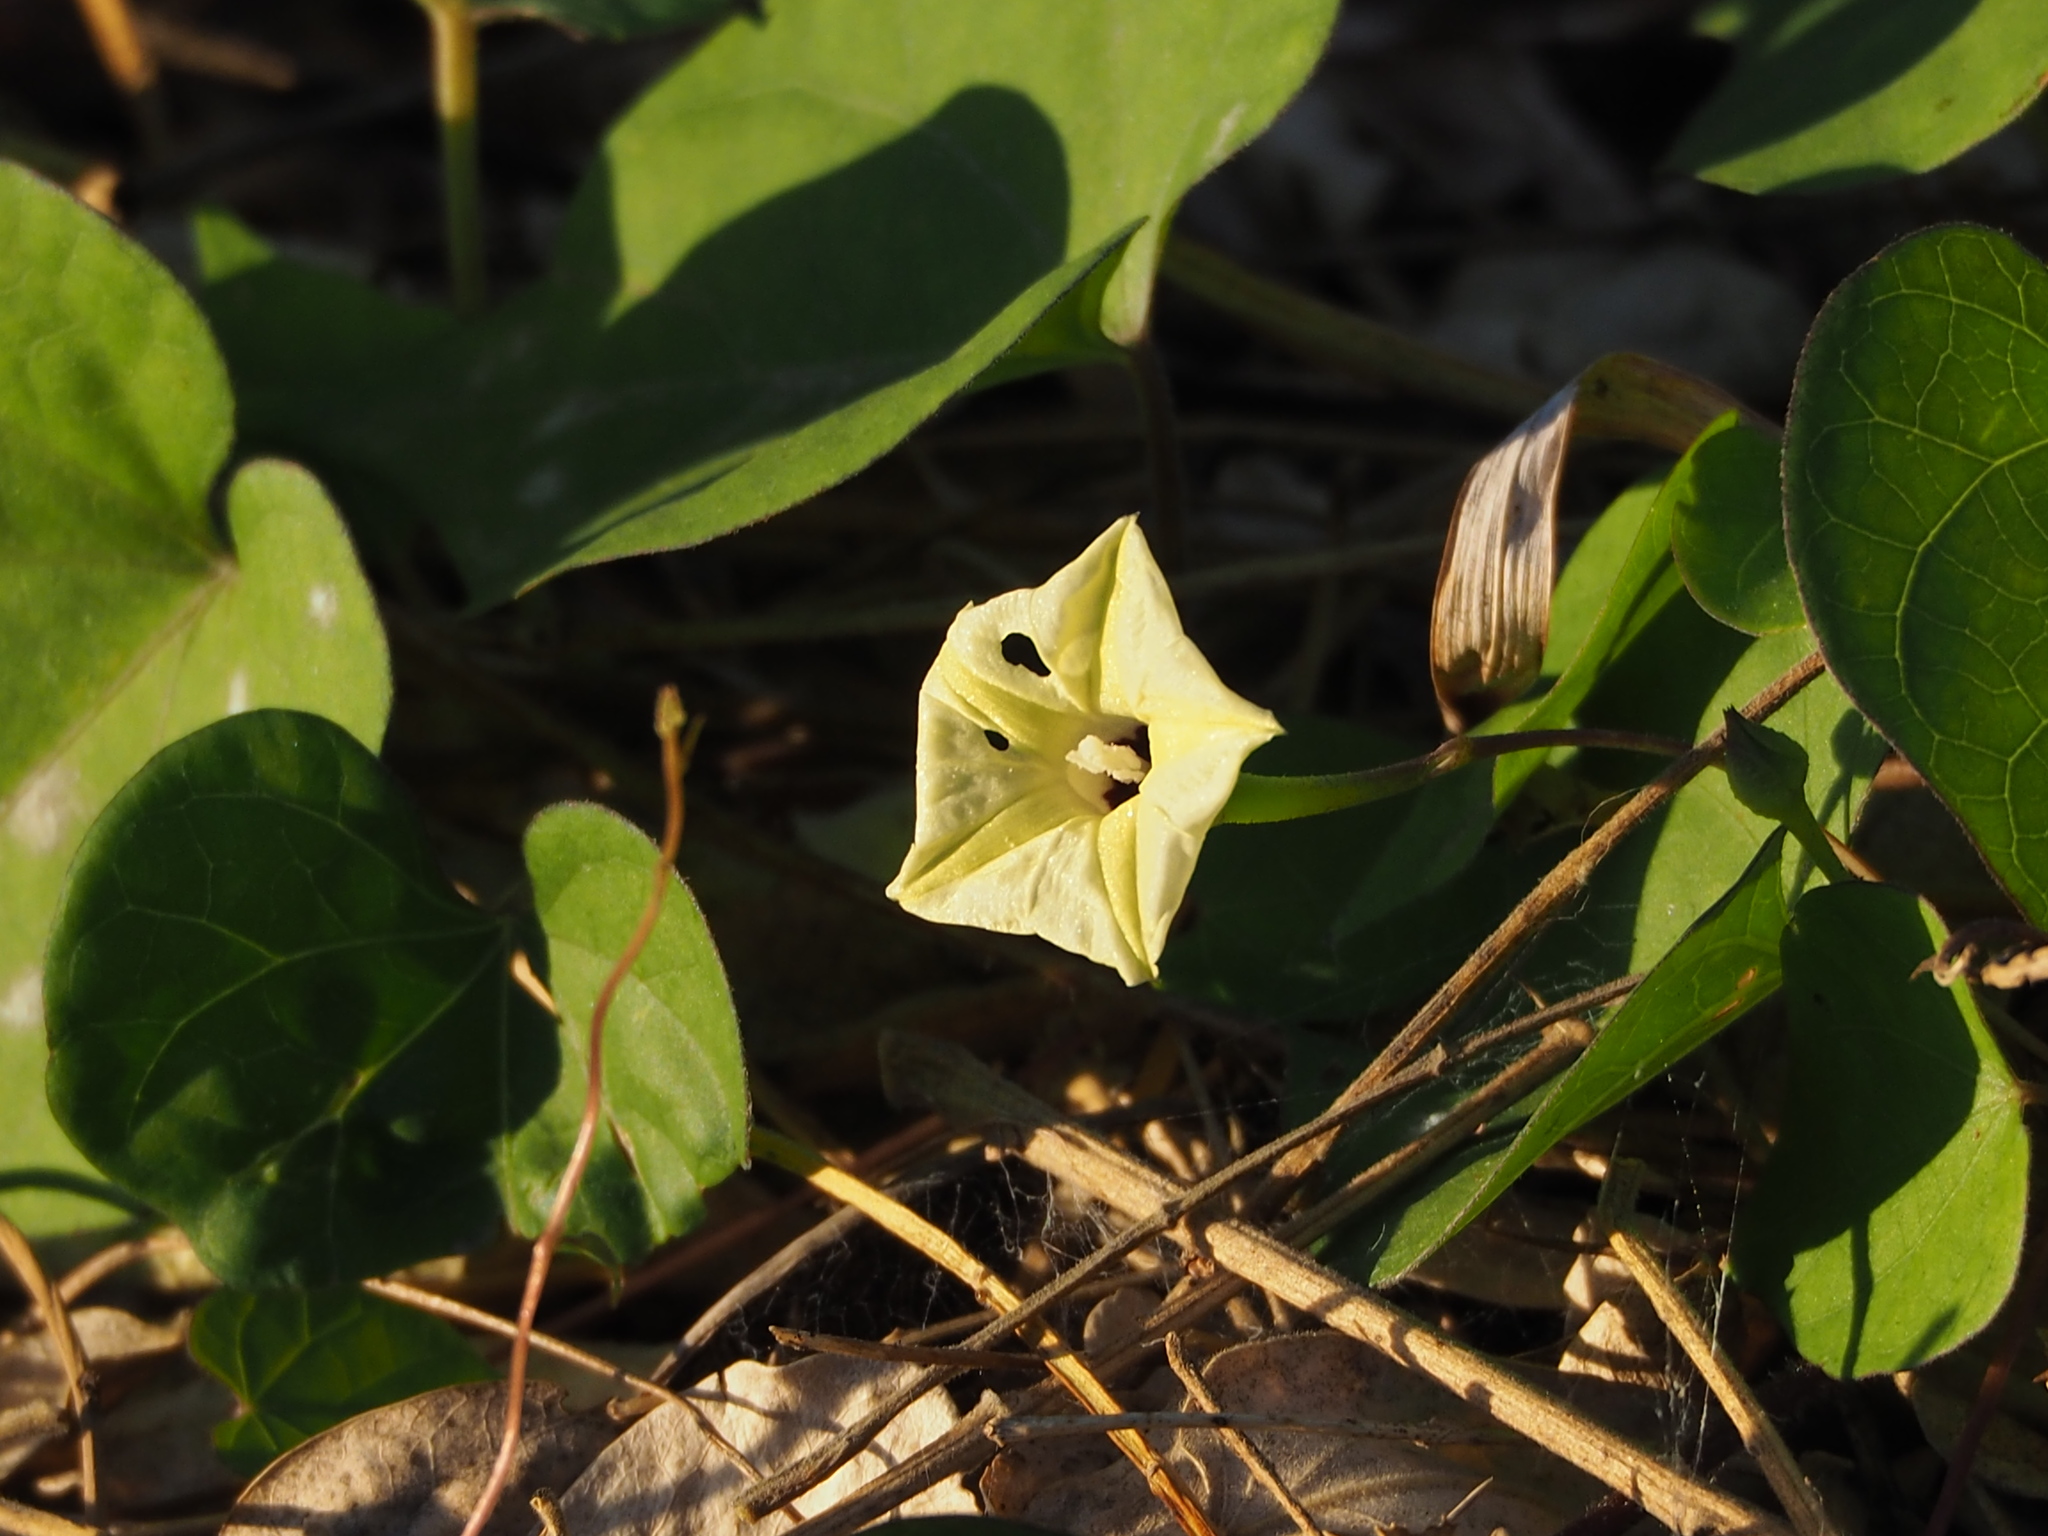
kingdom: Plantae
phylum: Tracheophyta
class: Magnoliopsida
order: Solanales
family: Convolvulaceae
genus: Ipomoea
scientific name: Ipomoea obscura
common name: Obscure morning-glory
